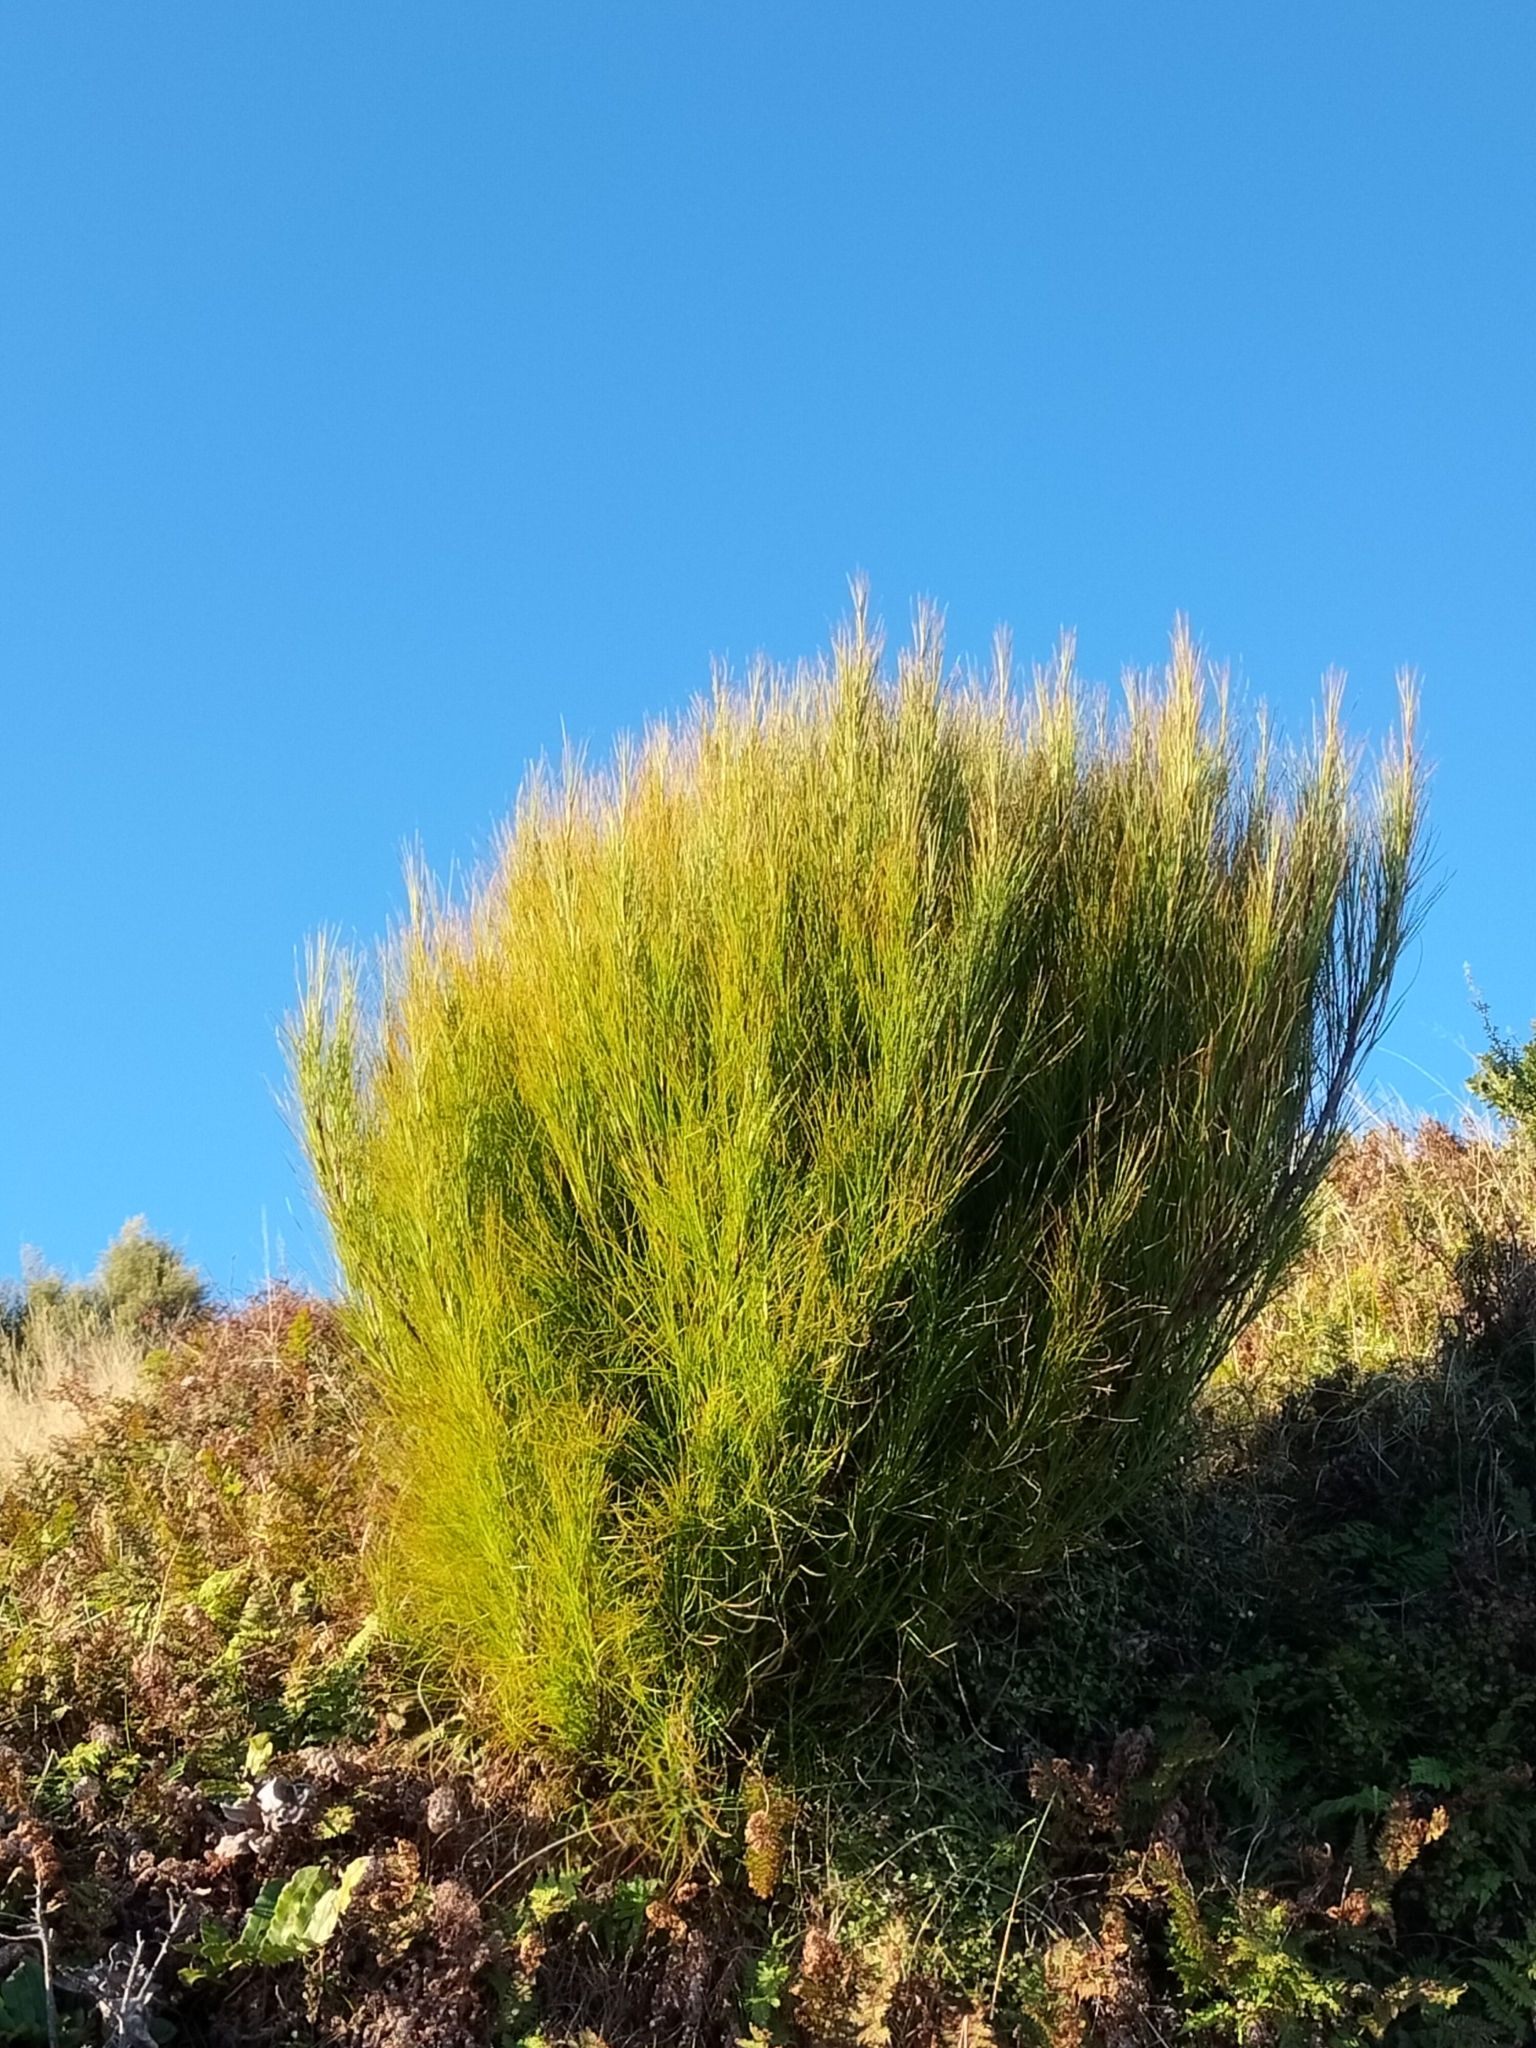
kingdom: Plantae
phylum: Tracheophyta
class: Magnoliopsida
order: Ericales
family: Ericaceae
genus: Dracophyllum
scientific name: Dracophyllum filifolium
